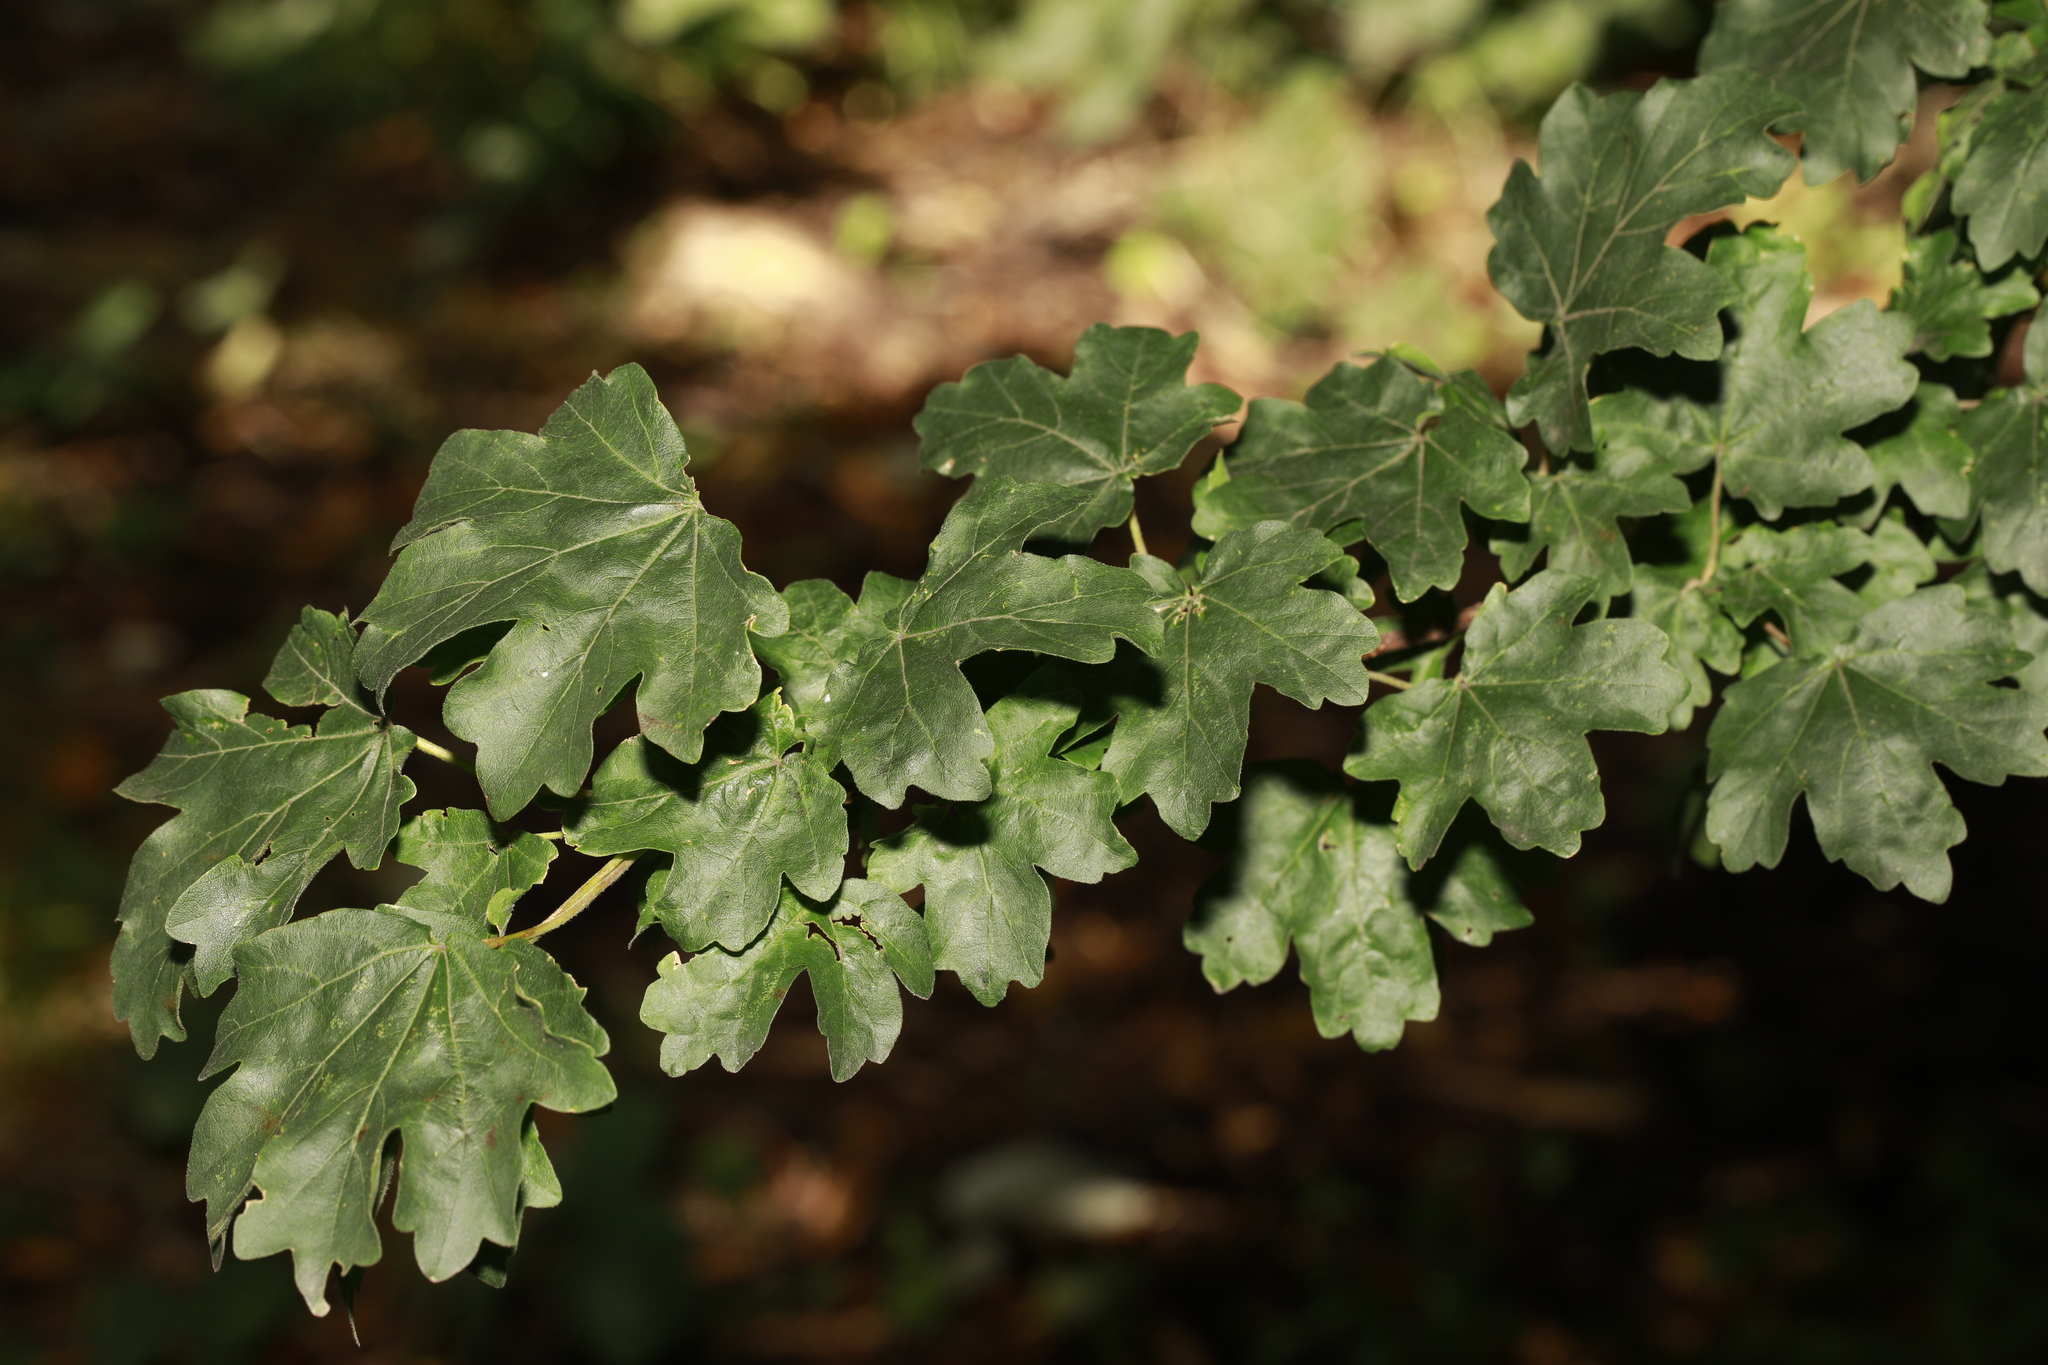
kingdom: Plantae
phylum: Tracheophyta
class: Magnoliopsida
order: Sapindales
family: Sapindaceae
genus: Acer
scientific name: Acer campestre
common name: Field maple
